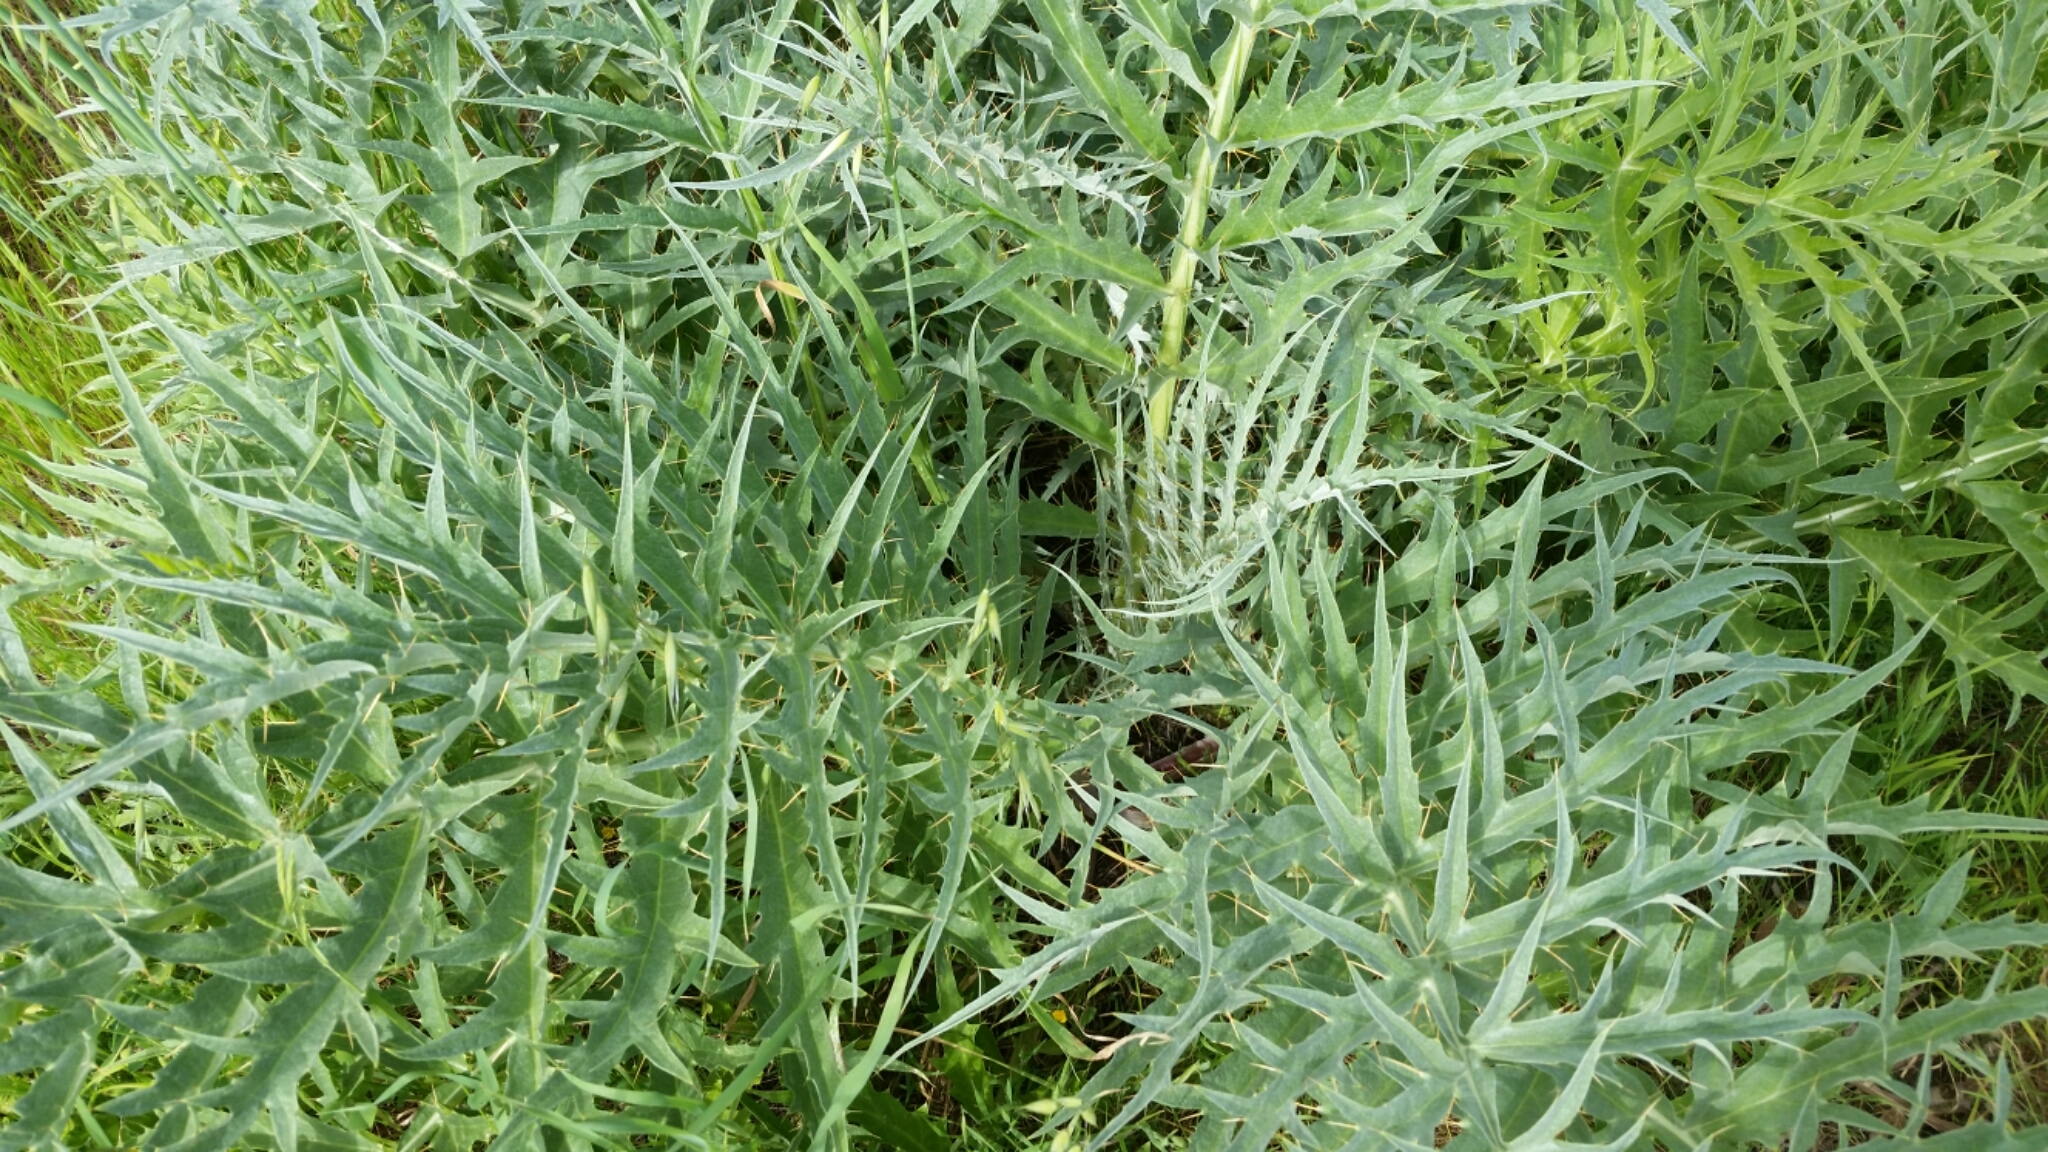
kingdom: Plantae
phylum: Tracheophyta
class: Magnoliopsida
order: Asterales
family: Asteraceae
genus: Cynara
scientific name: Cynara cardunculus
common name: Globe artichoke
